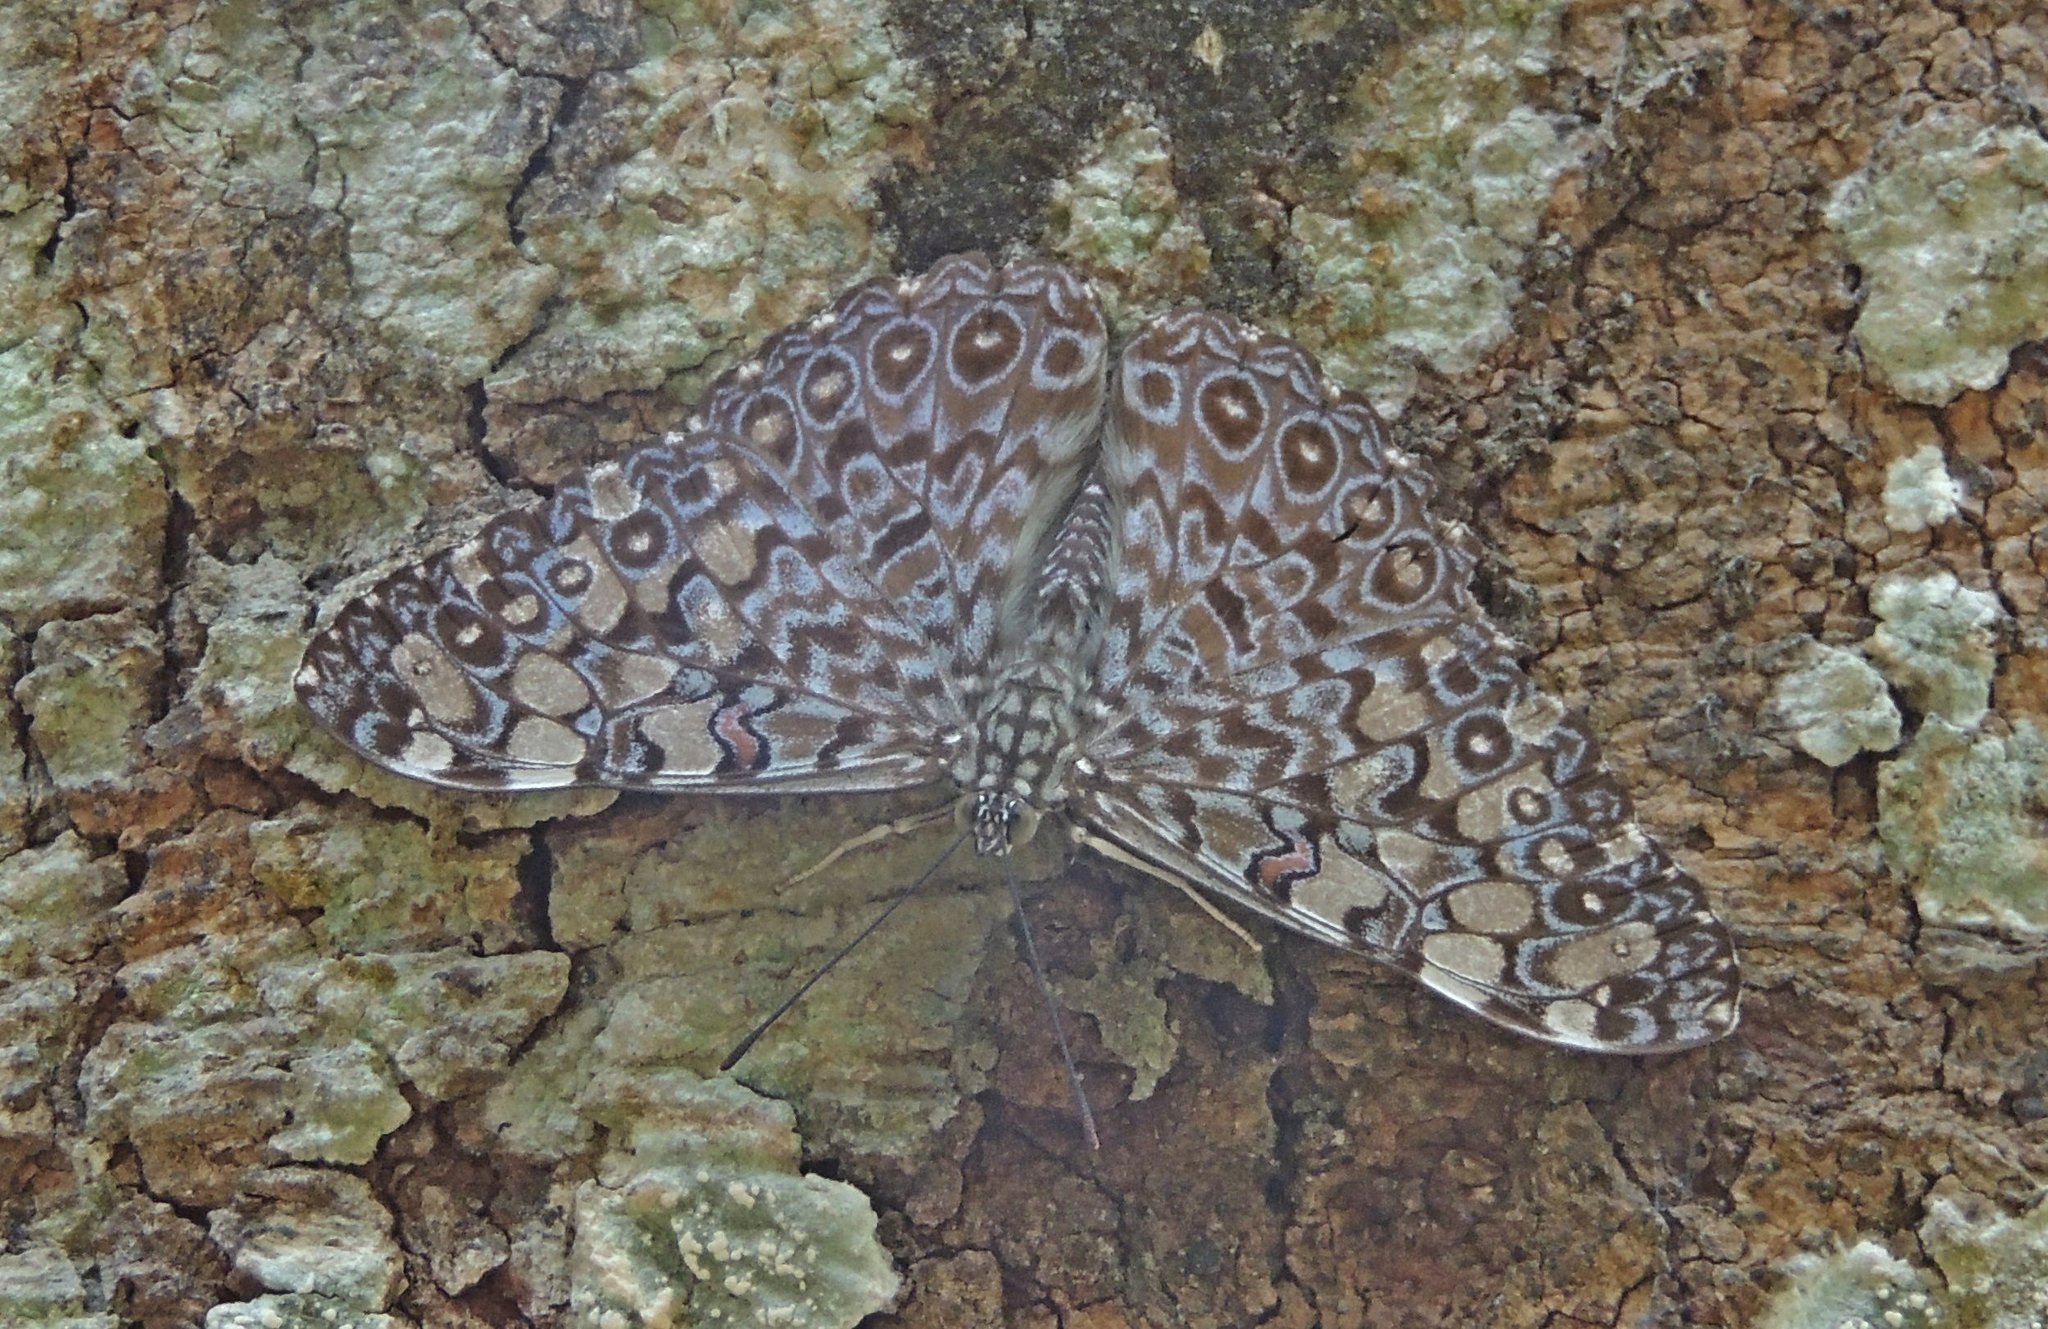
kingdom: Animalia
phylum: Arthropoda
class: Insecta
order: Lepidoptera
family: Nymphalidae
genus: Hamadryas
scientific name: Hamadryas feronia
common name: Variable cracker
